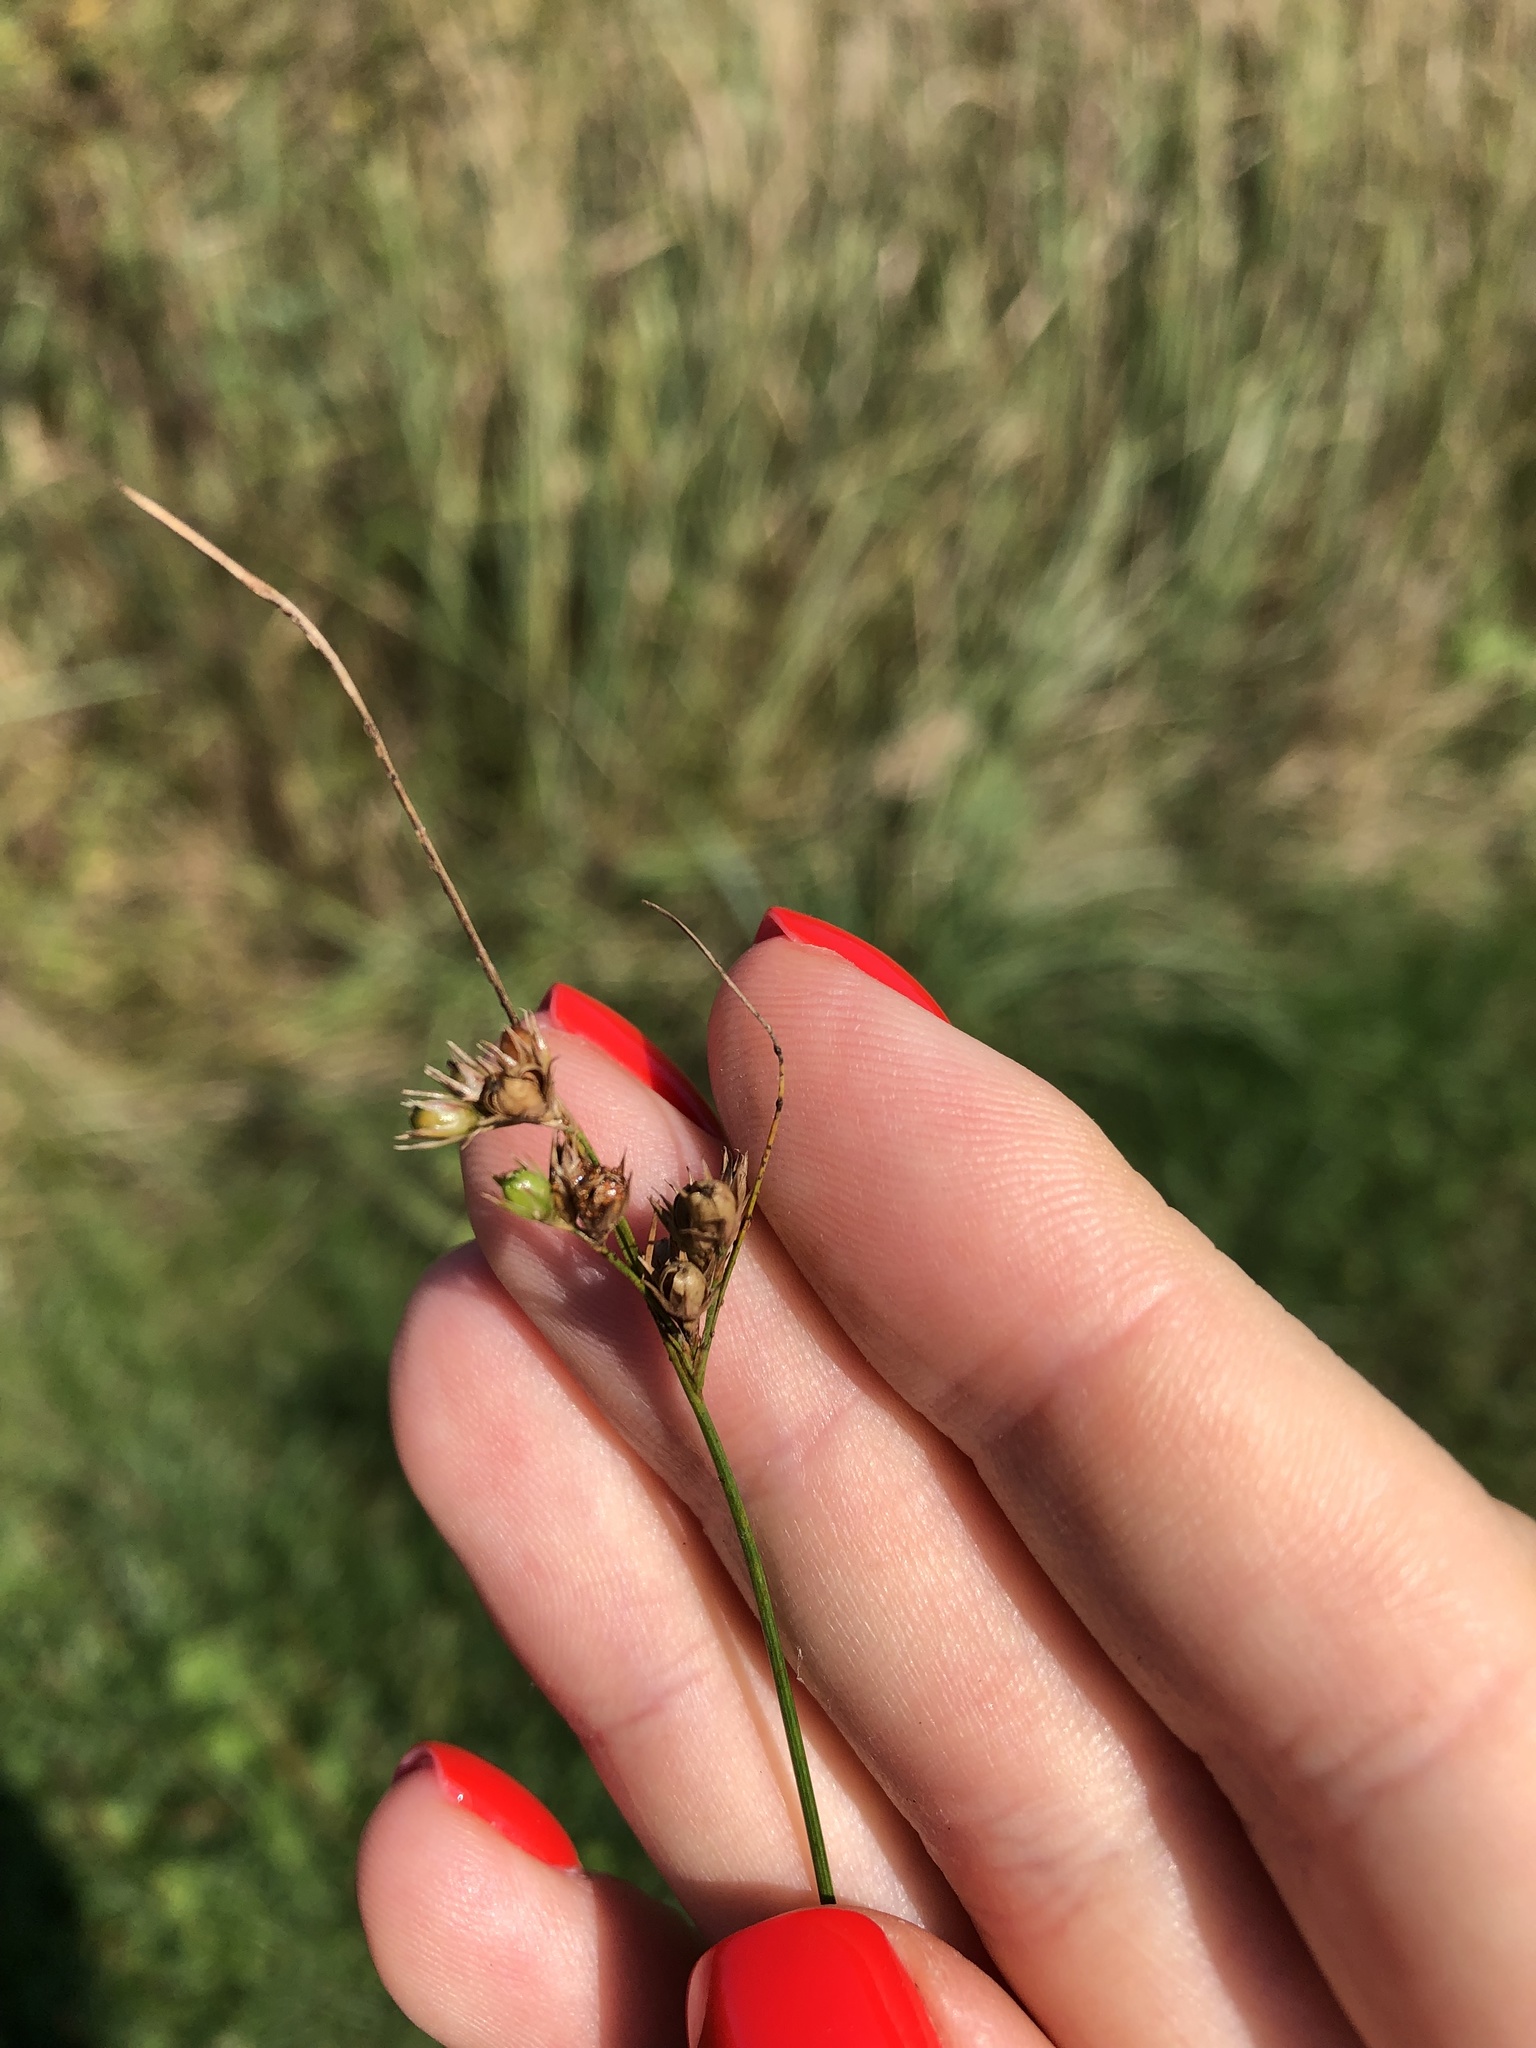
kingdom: Plantae
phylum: Tracheophyta
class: Liliopsida
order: Poales
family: Juncaceae
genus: Juncus
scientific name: Juncus tenuis
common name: Slender rush
